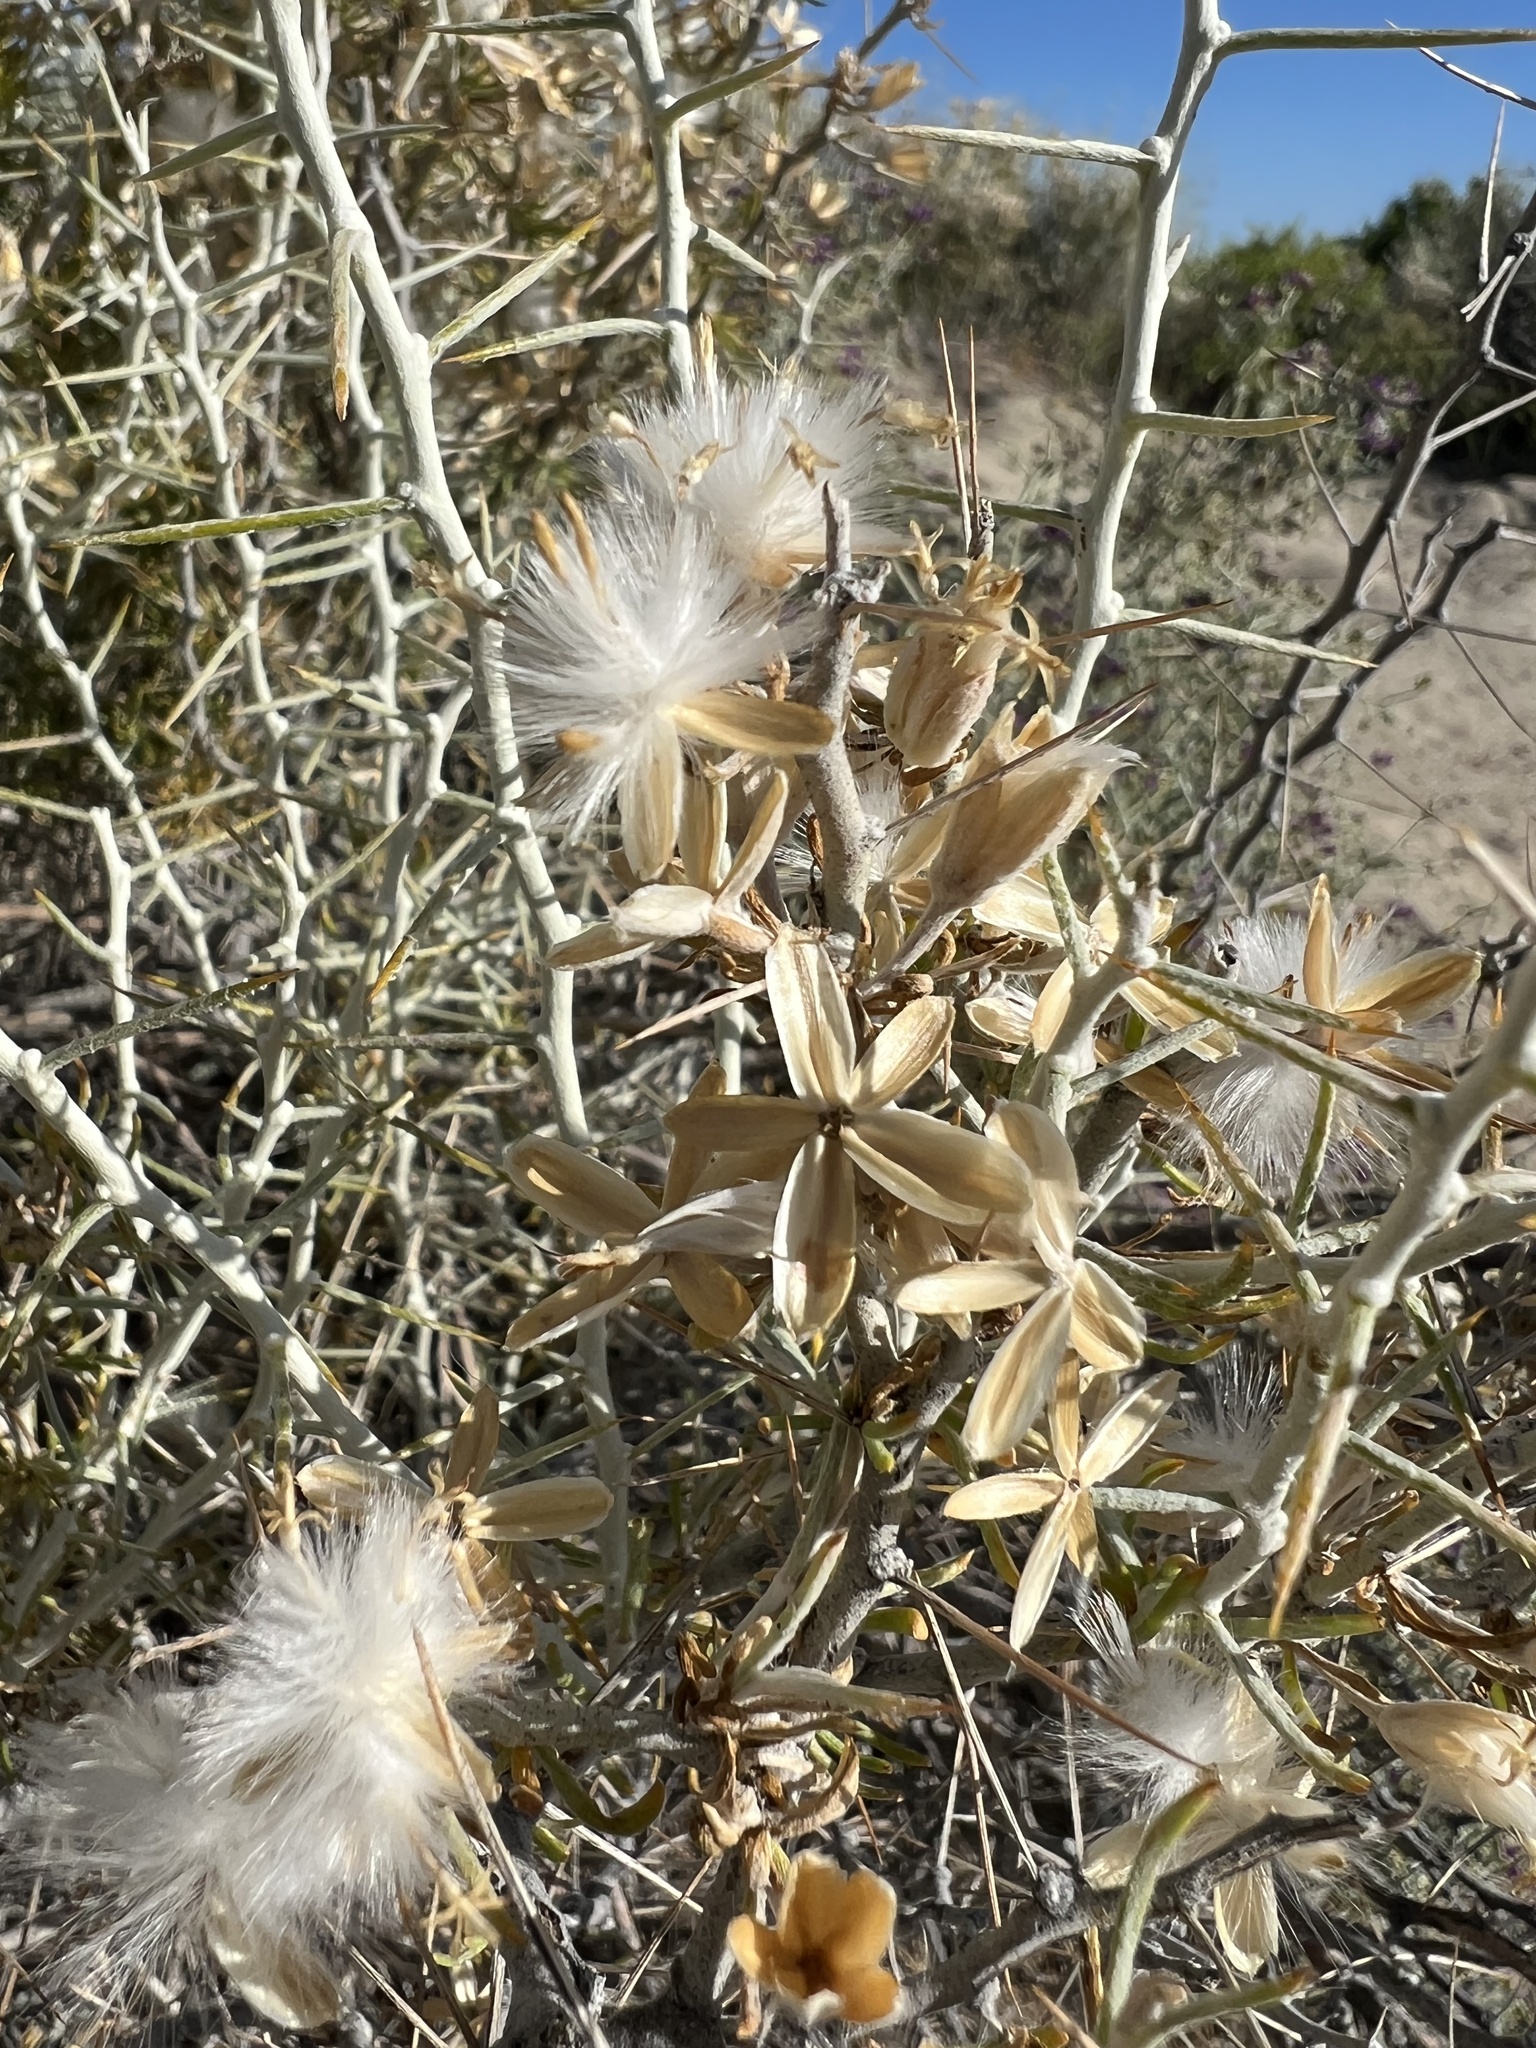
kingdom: Plantae
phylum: Tracheophyta
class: Magnoliopsida
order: Asterales
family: Asteraceae
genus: Tetradymia
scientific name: Tetradymia axillaris
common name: Long-spine horsebrush
